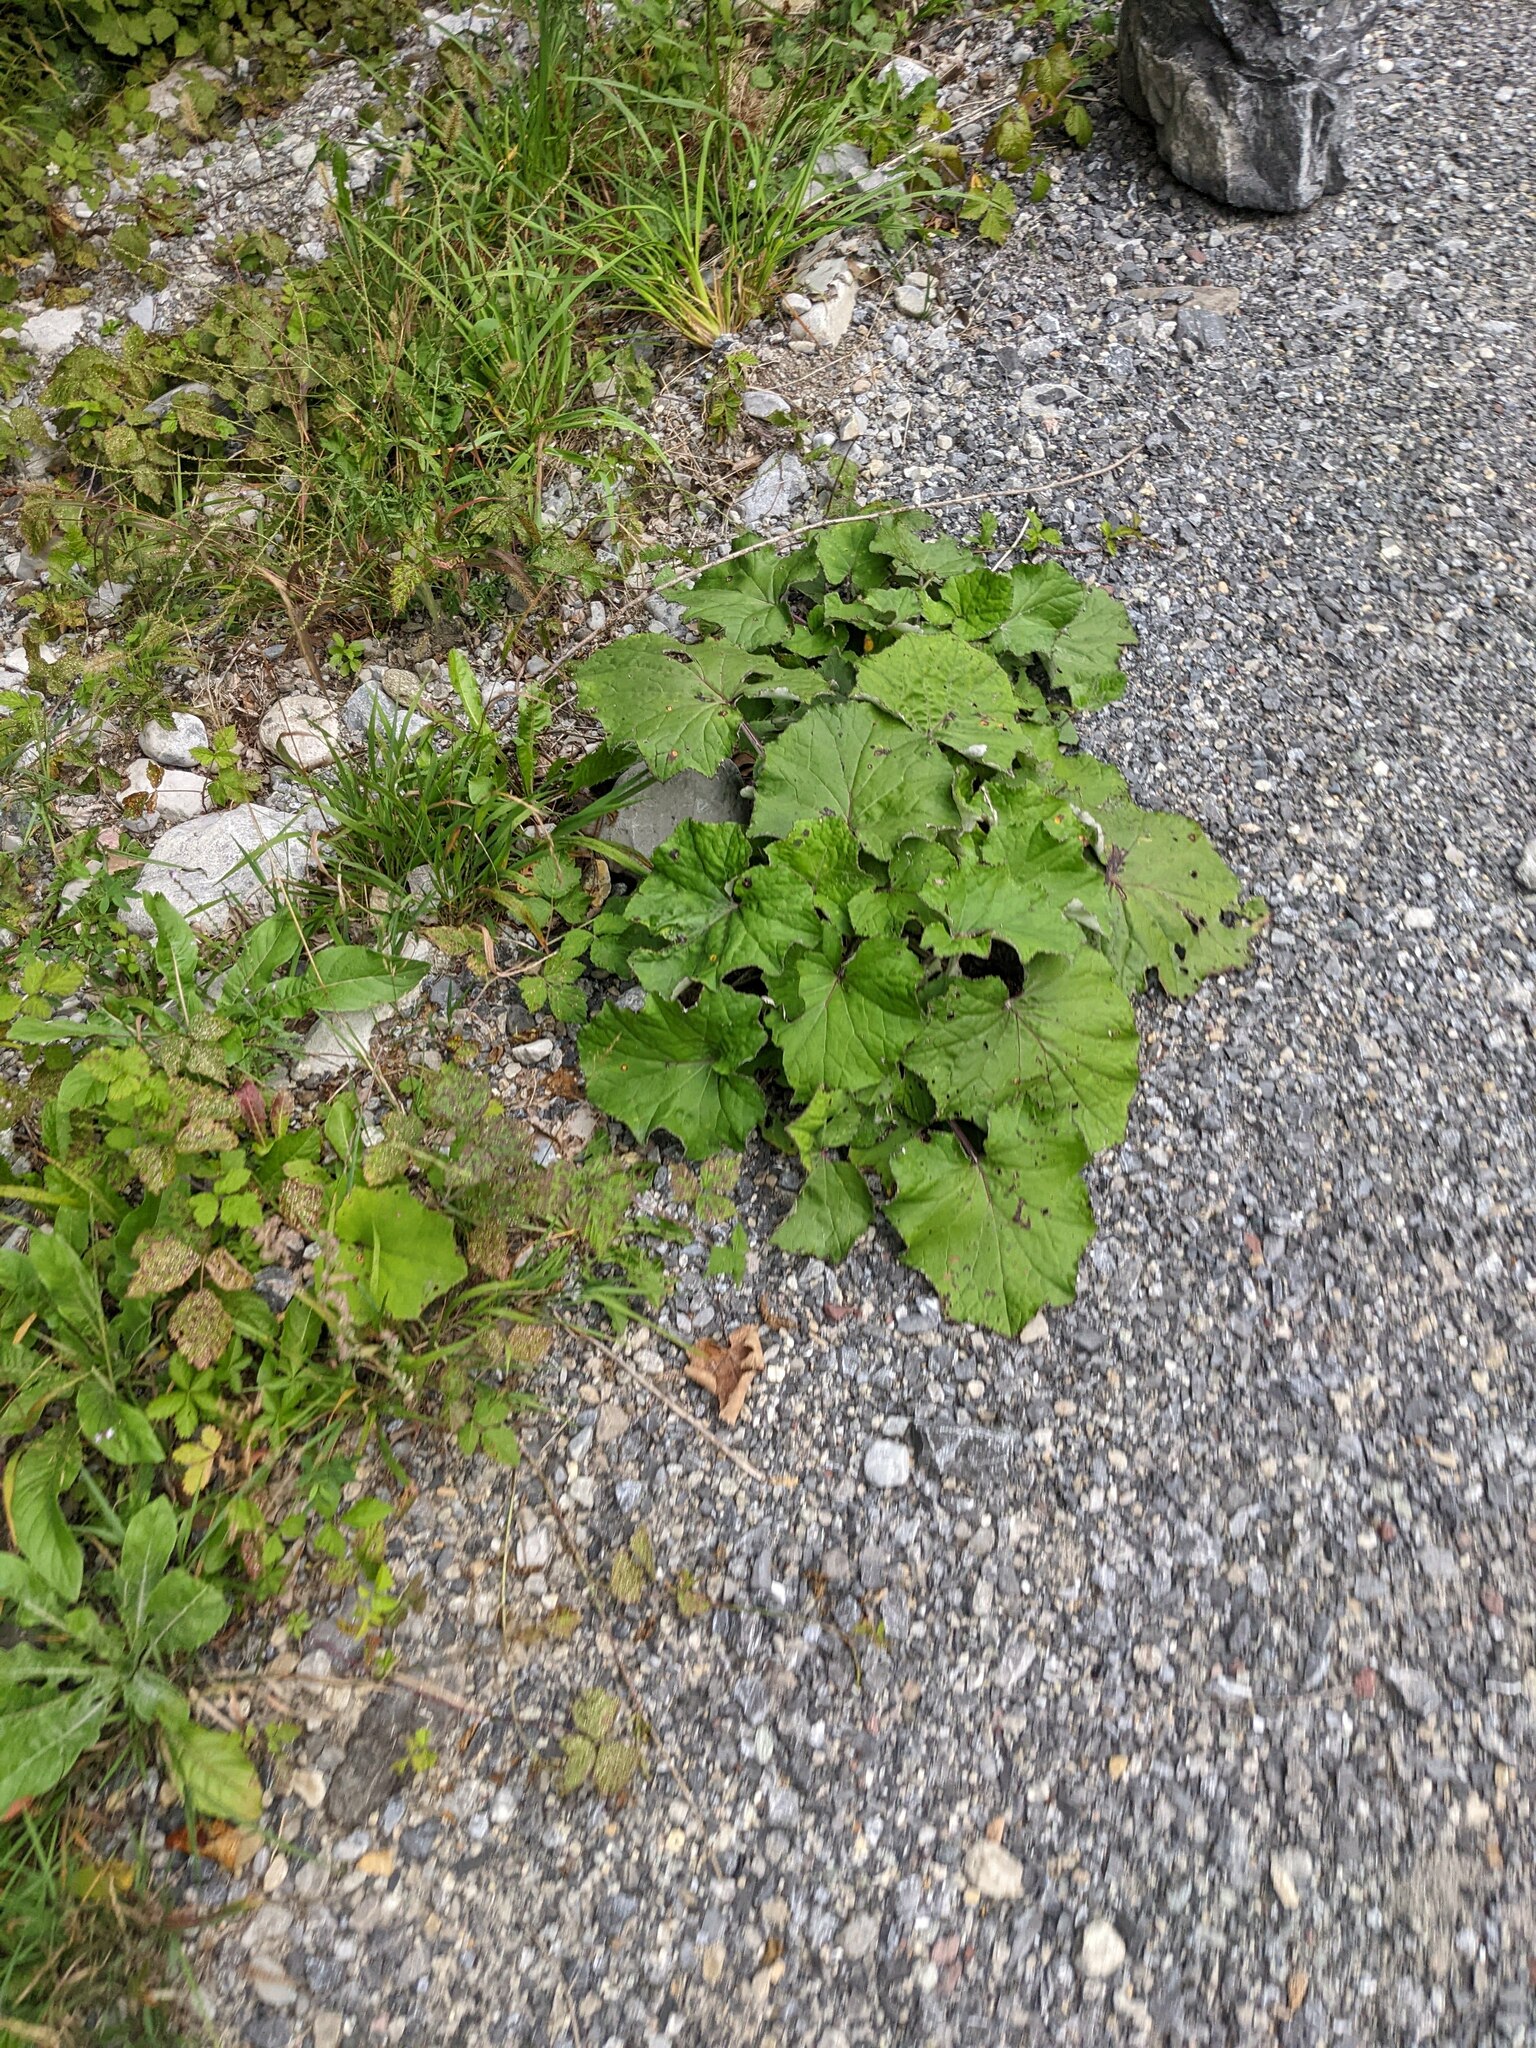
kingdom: Plantae
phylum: Tracheophyta
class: Magnoliopsida
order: Asterales
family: Asteraceae
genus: Tussilago
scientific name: Tussilago farfara
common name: Coltsfoot
